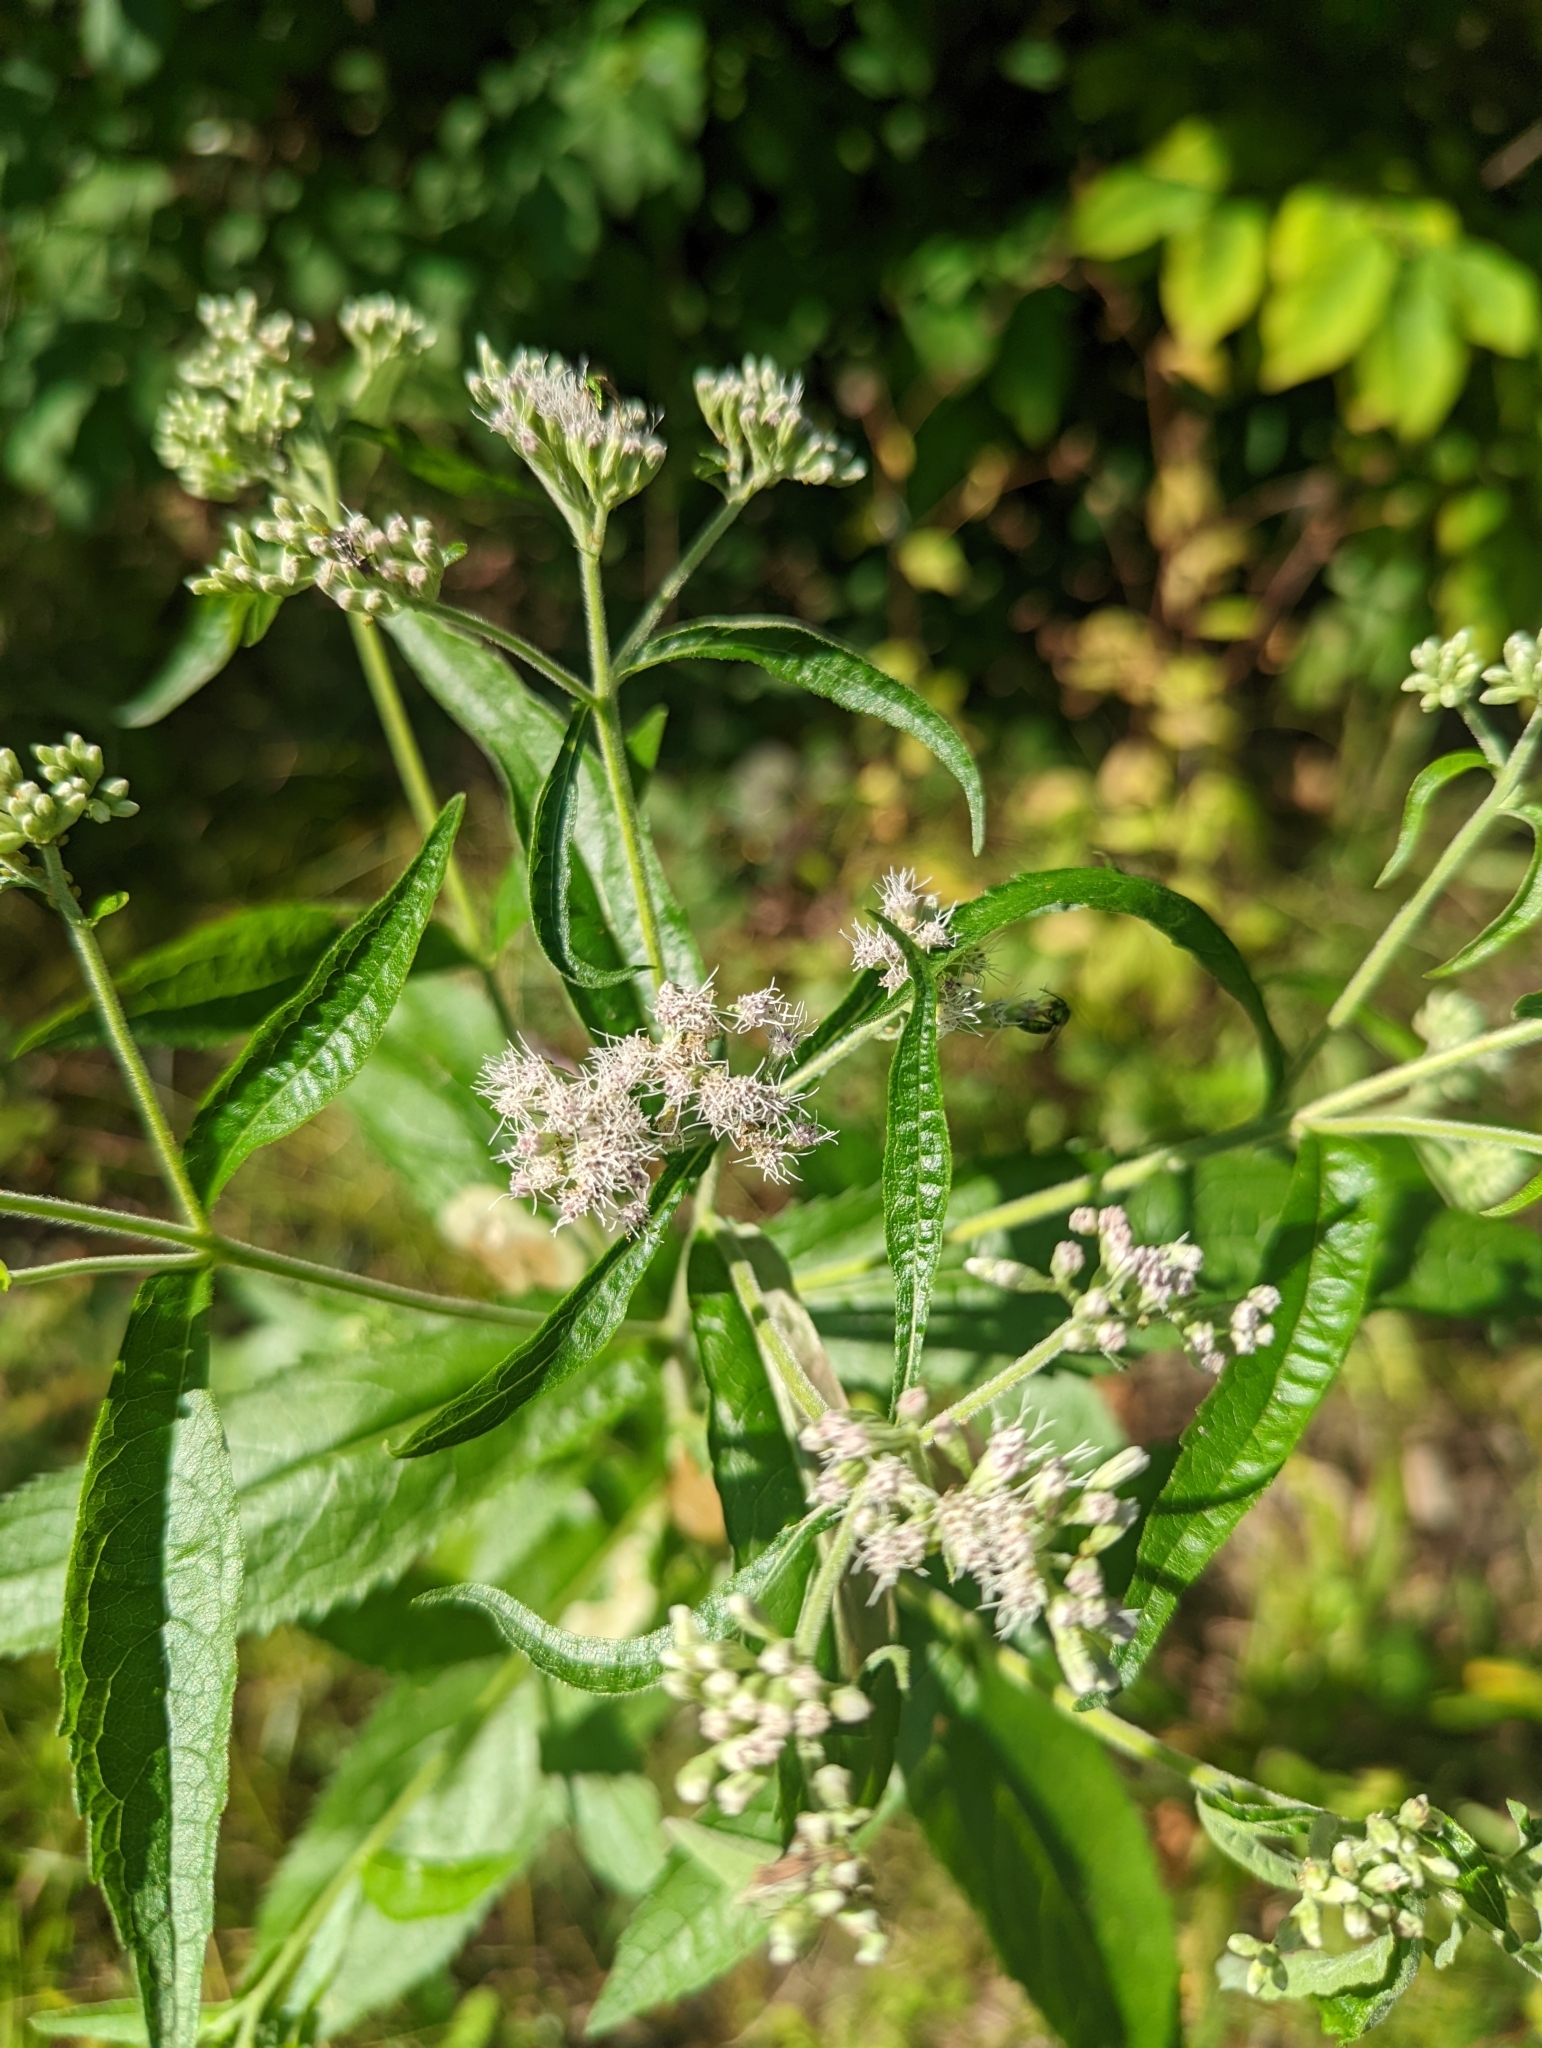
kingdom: Plantae
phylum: Tracheophyta
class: Magnoliopsida
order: Asterales
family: Asteraceae
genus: Eupatorium
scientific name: Eupatorium perfoliatum
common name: Boneset
